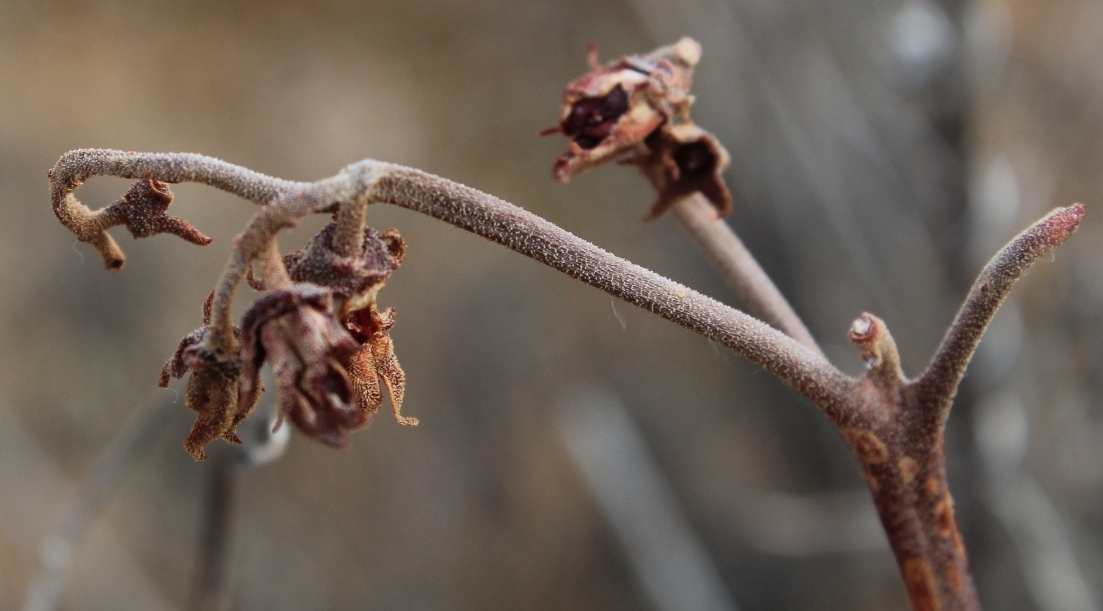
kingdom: Plantae
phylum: Tracheophyta
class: Magnoliopsida
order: Saxifragales
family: Crassulaceae
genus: Tylecodon
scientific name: Tylecodon wallichii
